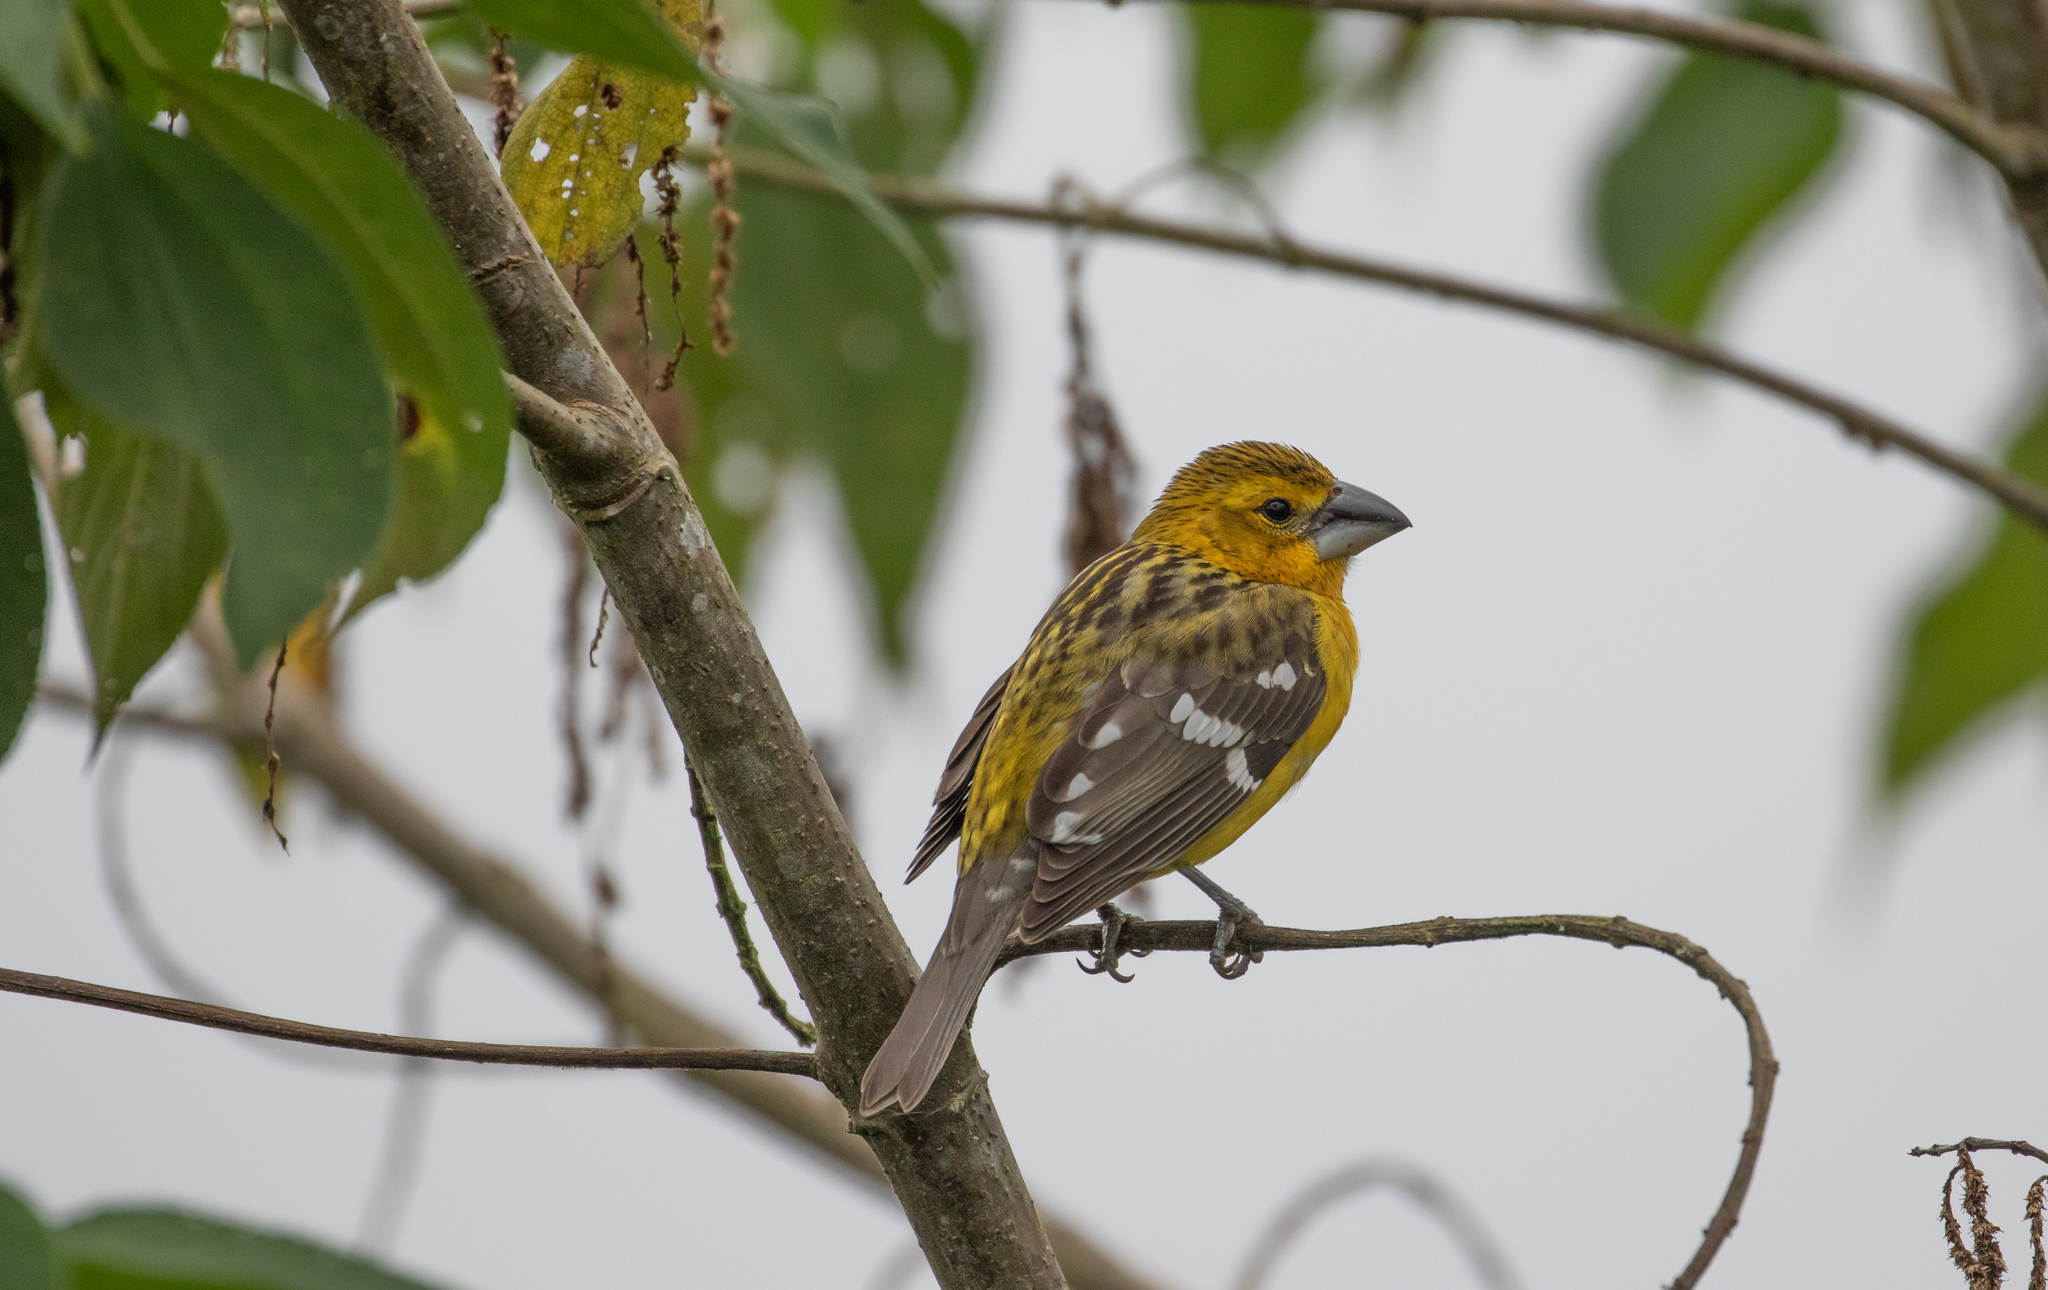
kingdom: Animalia
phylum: Chordata
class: Aves
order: Passeriformes
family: Cardinalidae
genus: Pheucticus
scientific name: Pheucticus chrysogaster
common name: Golden grosbeak
